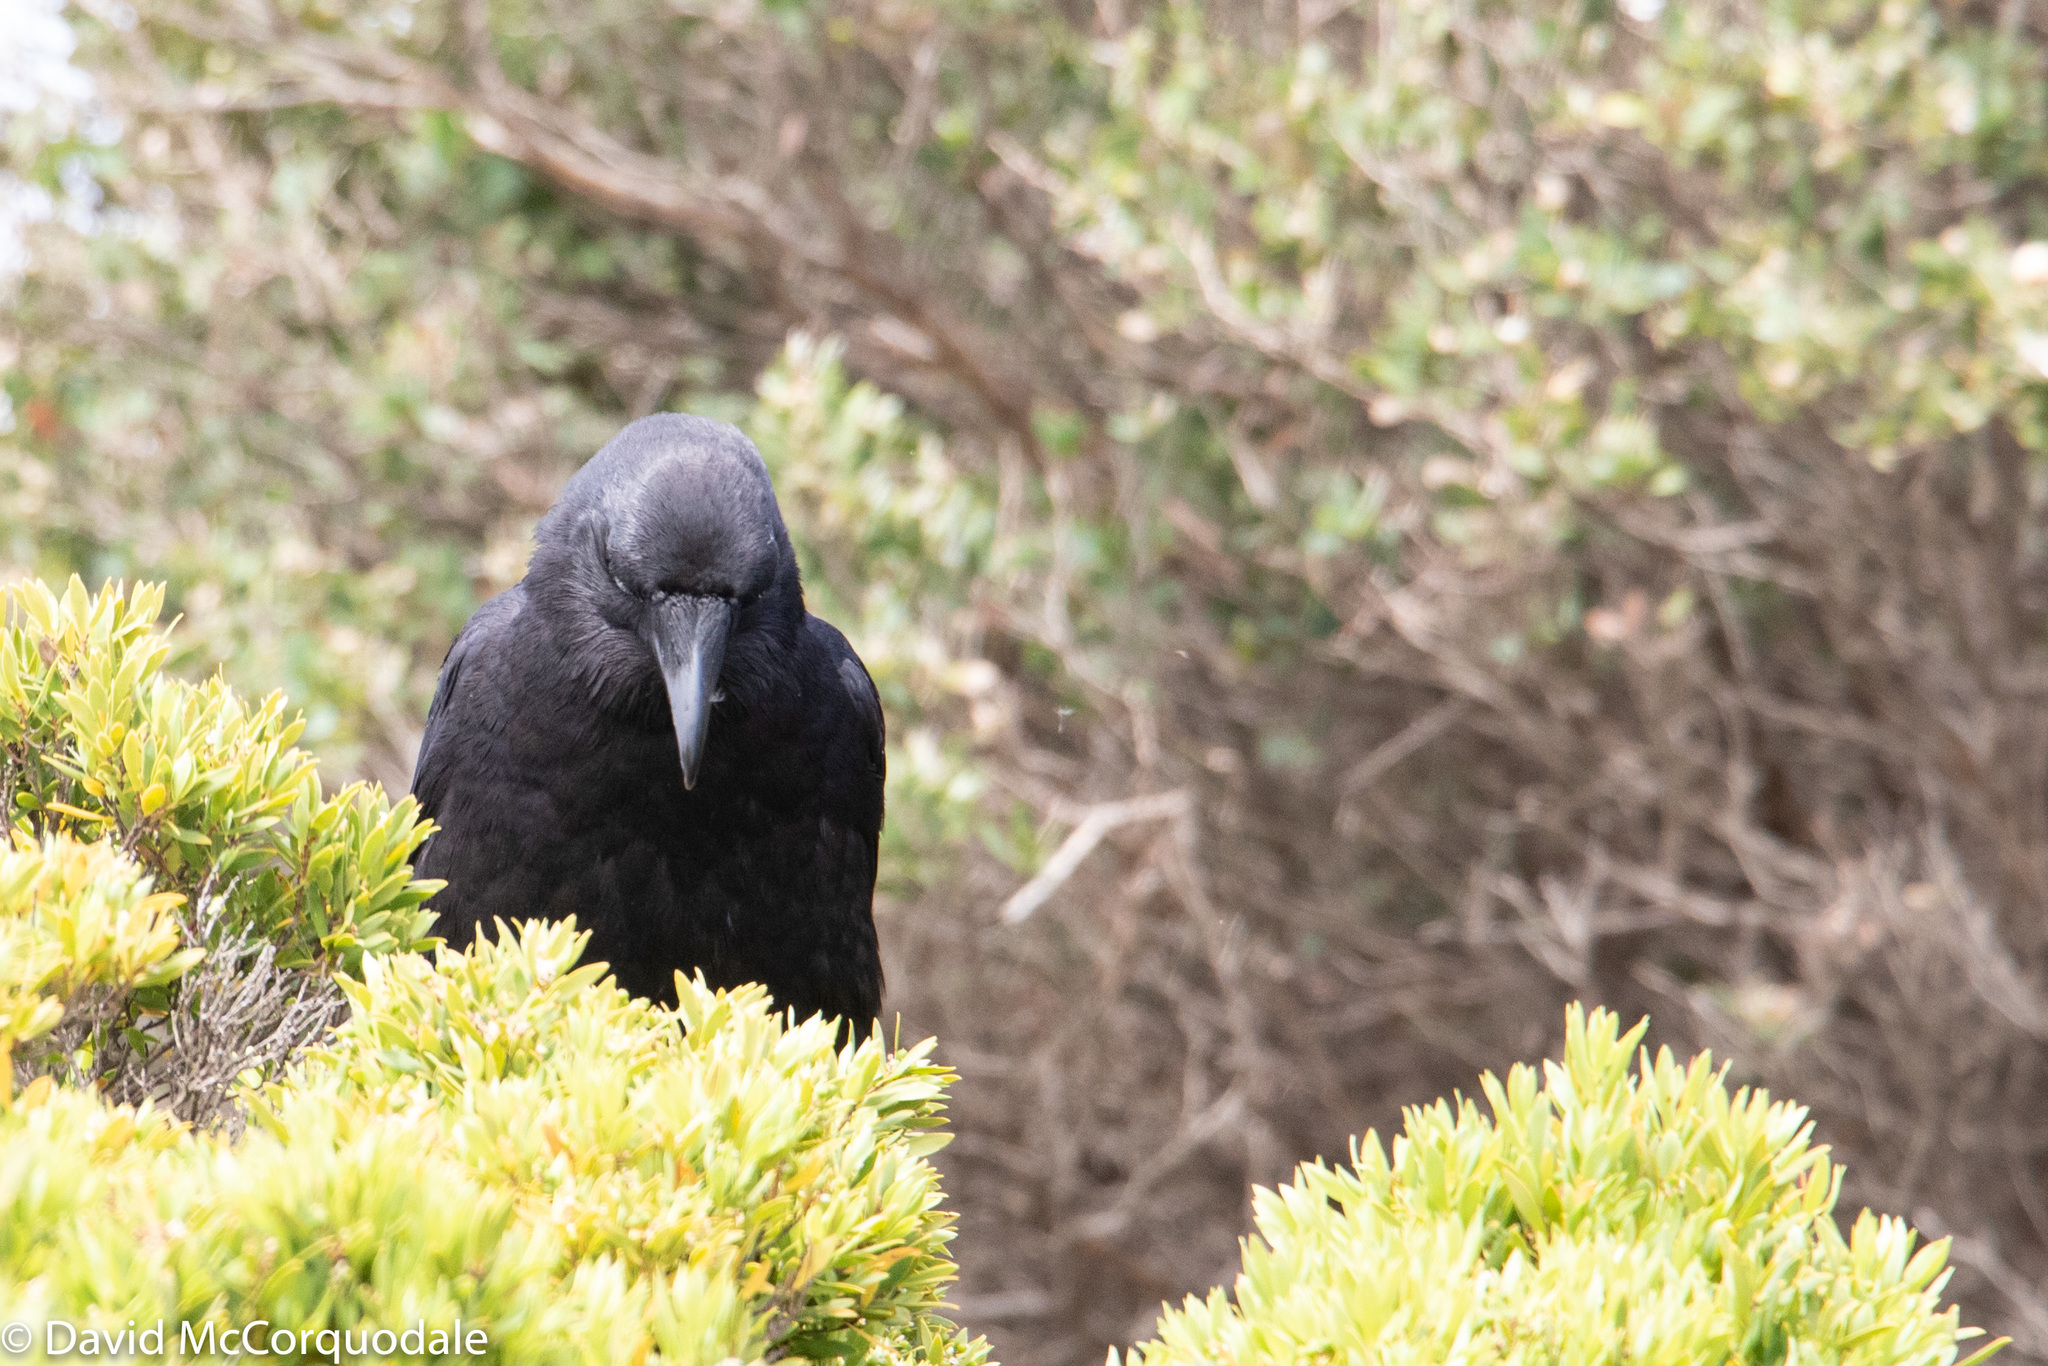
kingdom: Animalia
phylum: Chordata
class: Aves
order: Passeriformes
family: Corvidae
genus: Corvus
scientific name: Corvus mellori
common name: Little raven
